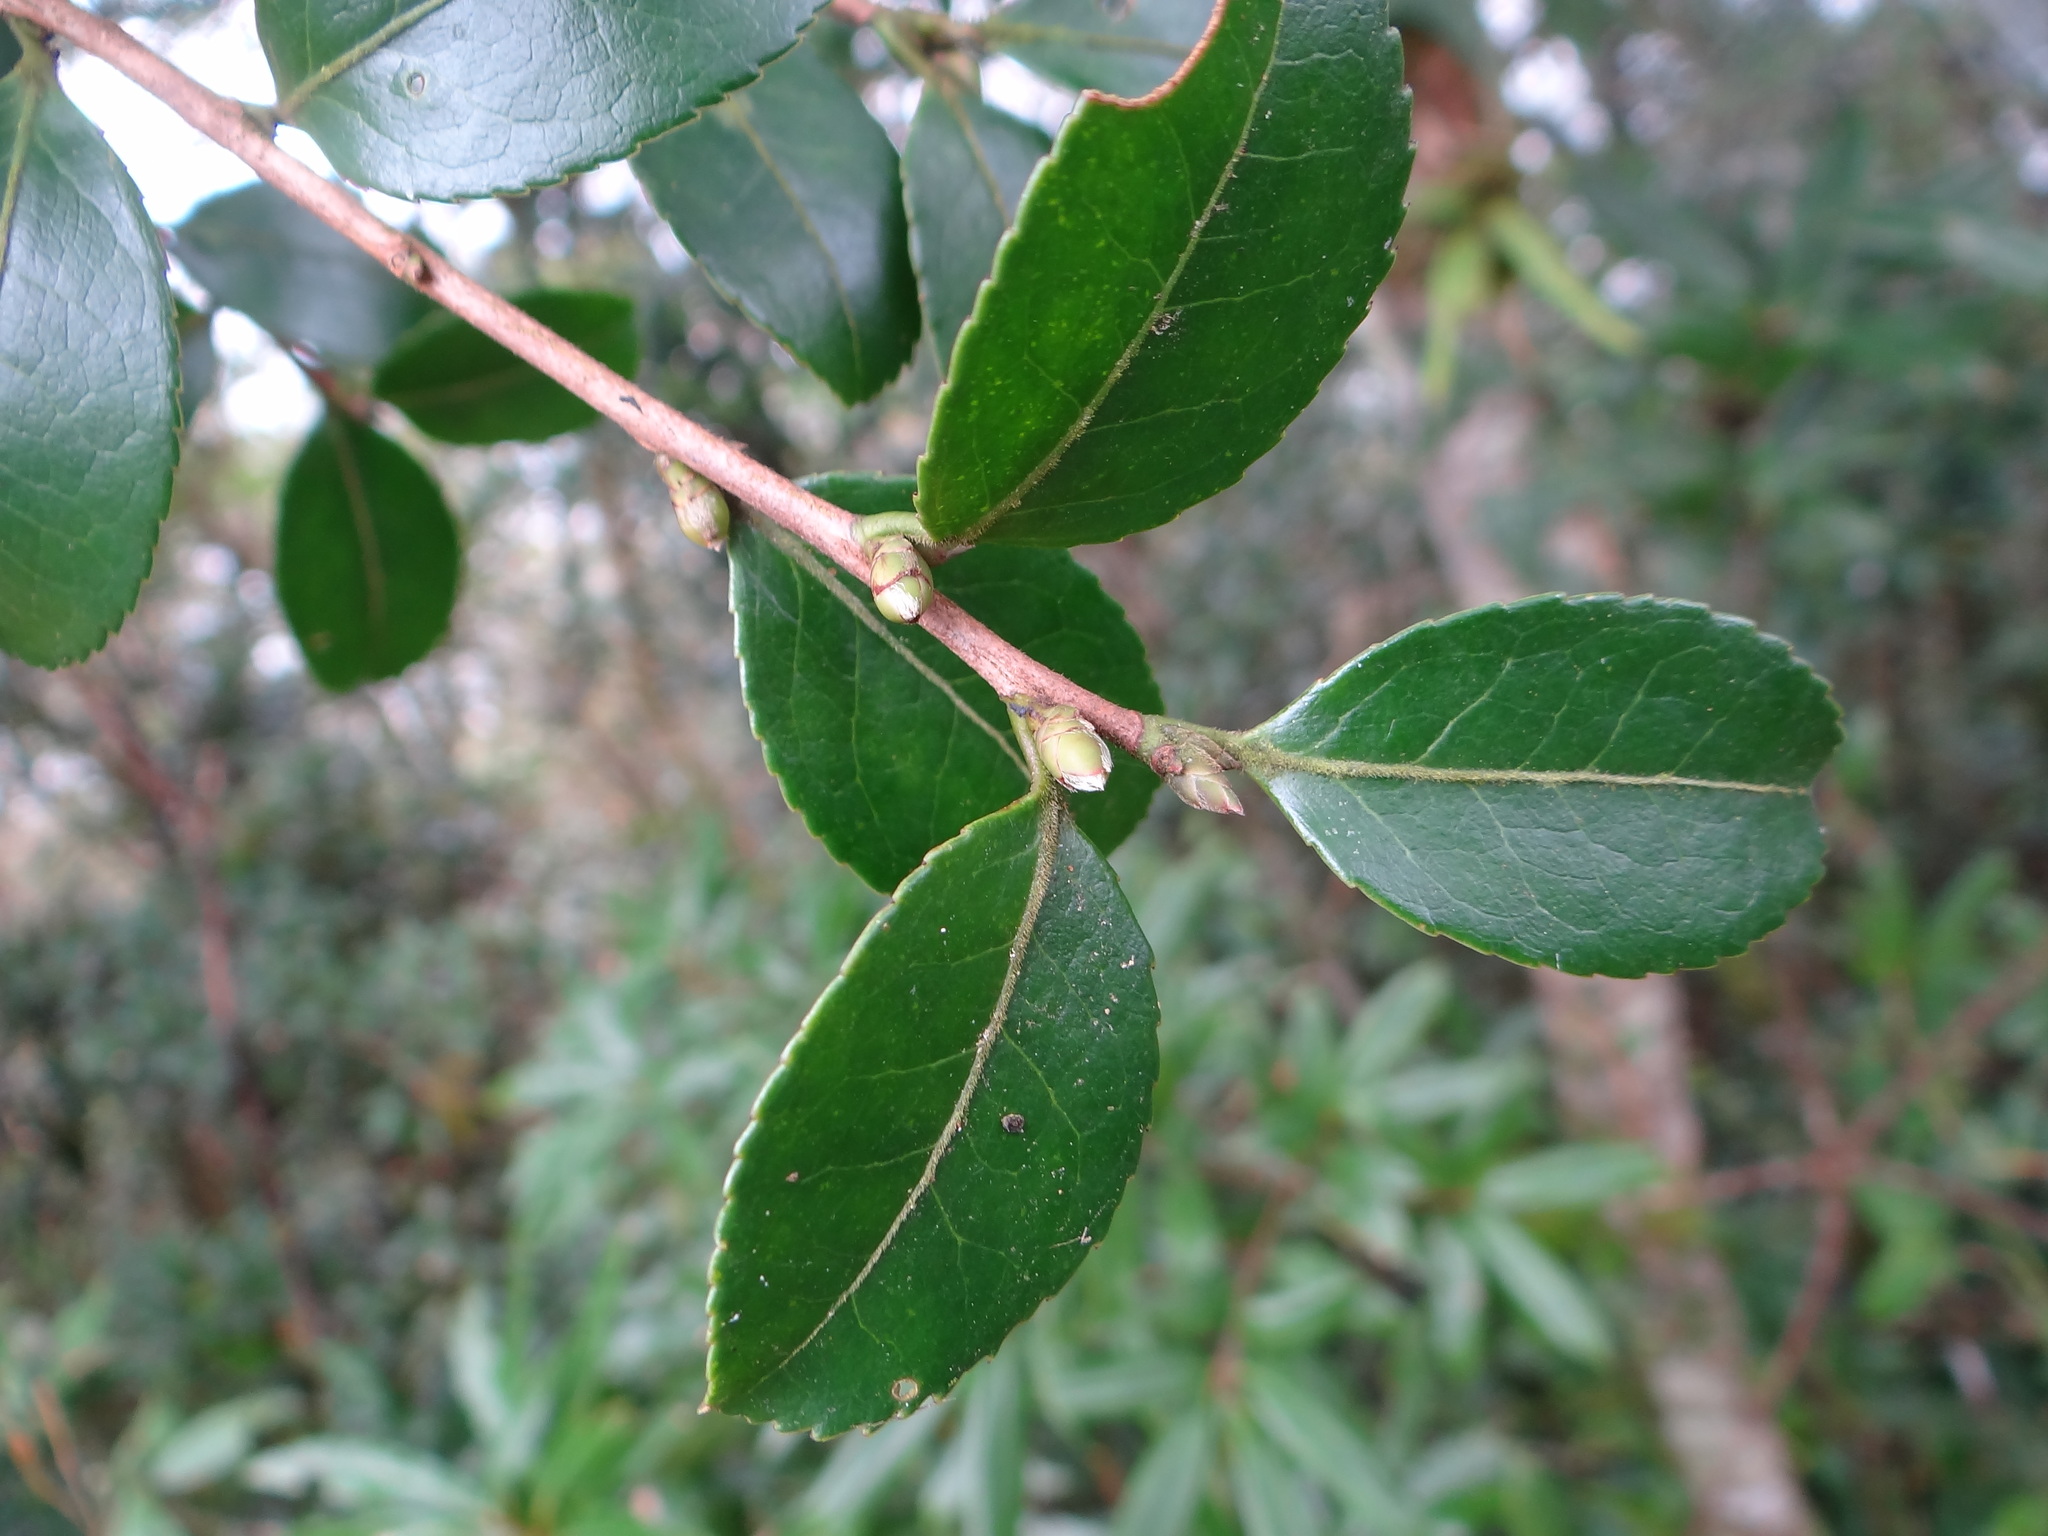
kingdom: Plantae
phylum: Tracheophyta
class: Magnoliopsida
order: Ericales
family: Theaceae
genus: Camellia
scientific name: Camellia brevistyla
